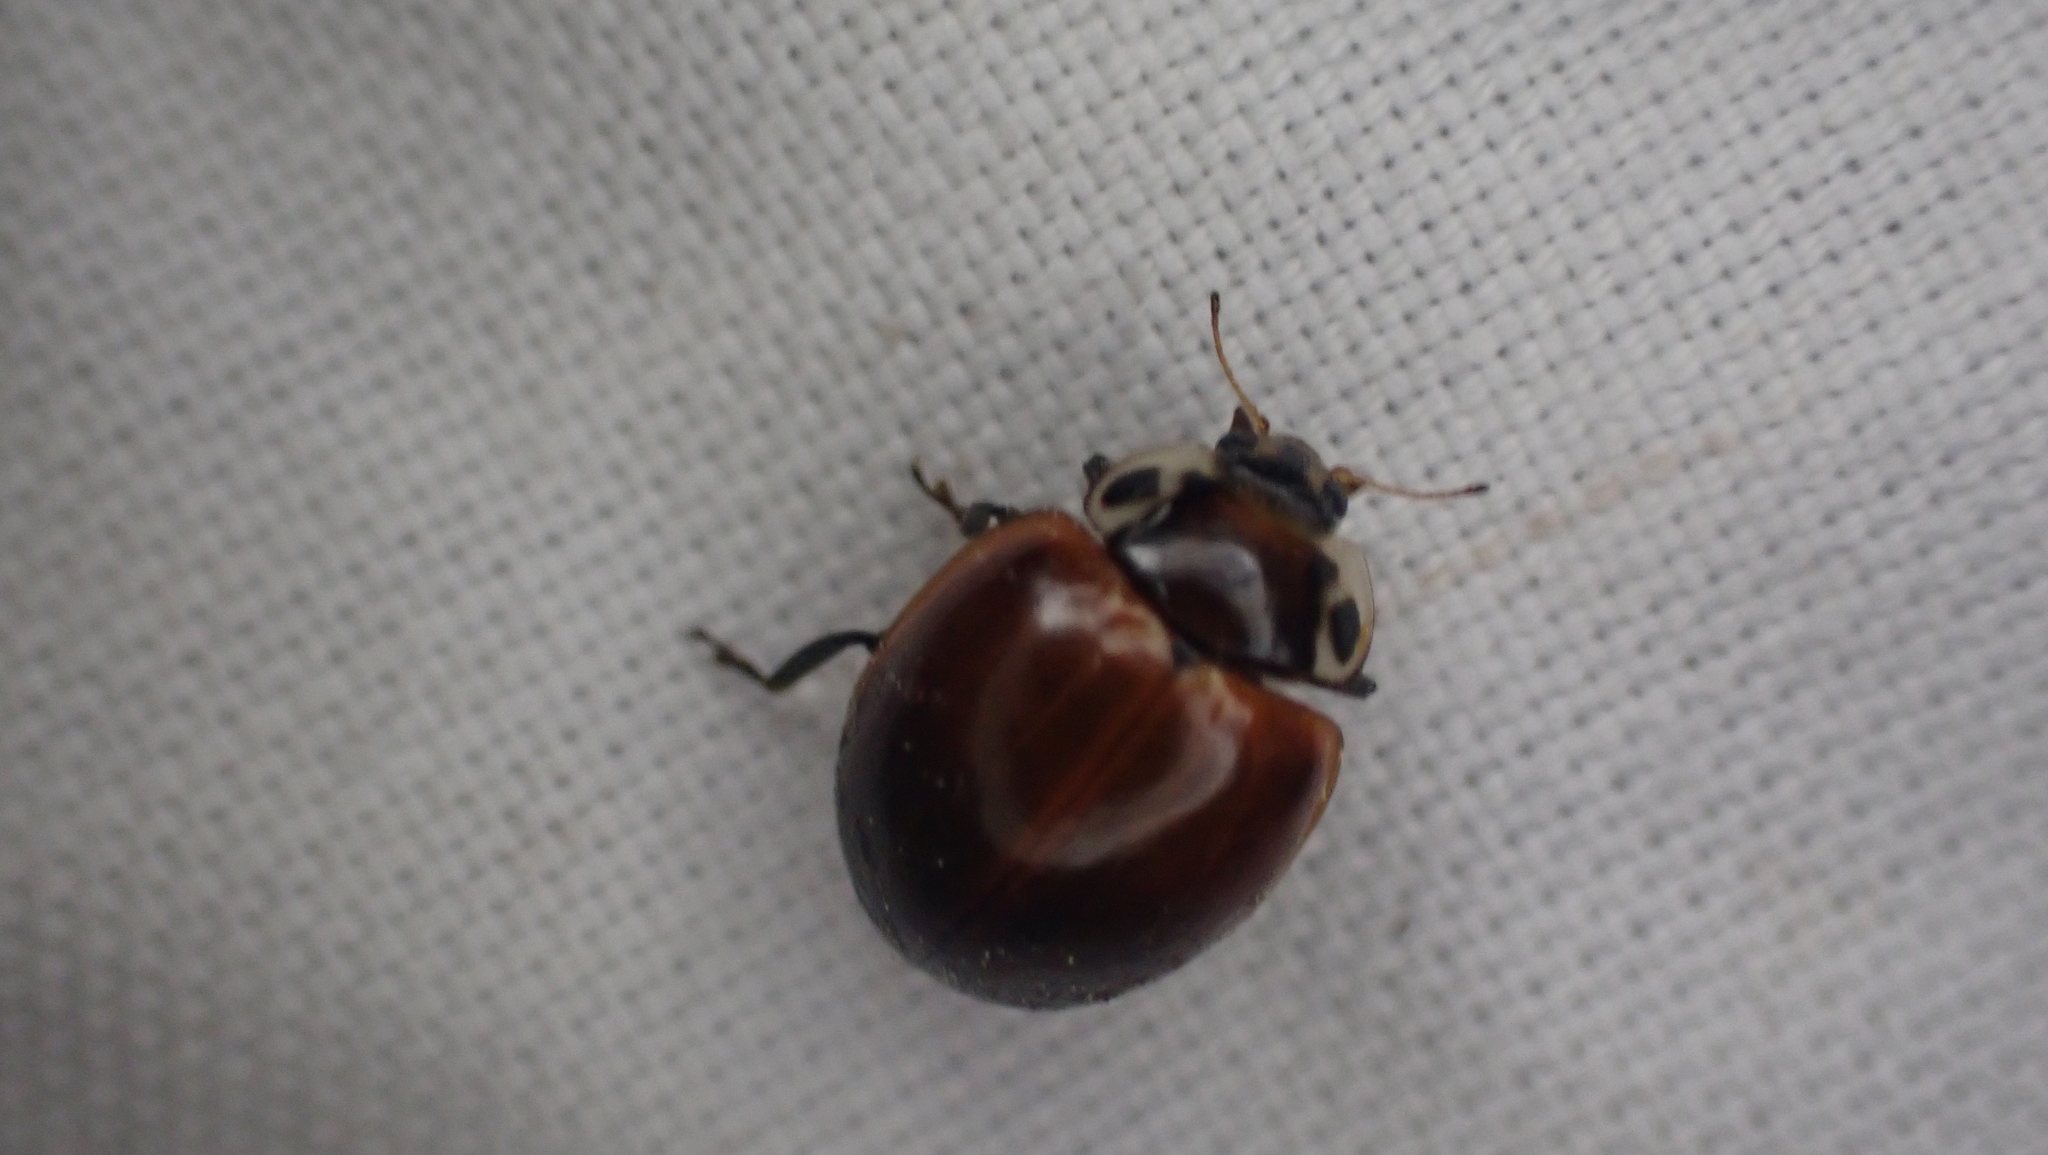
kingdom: Animalia
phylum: Arthropoda
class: Insecta
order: Coleoptera
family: Coccinellidae
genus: Myzia
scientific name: Myzia pullata
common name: Streaked lady beetle
